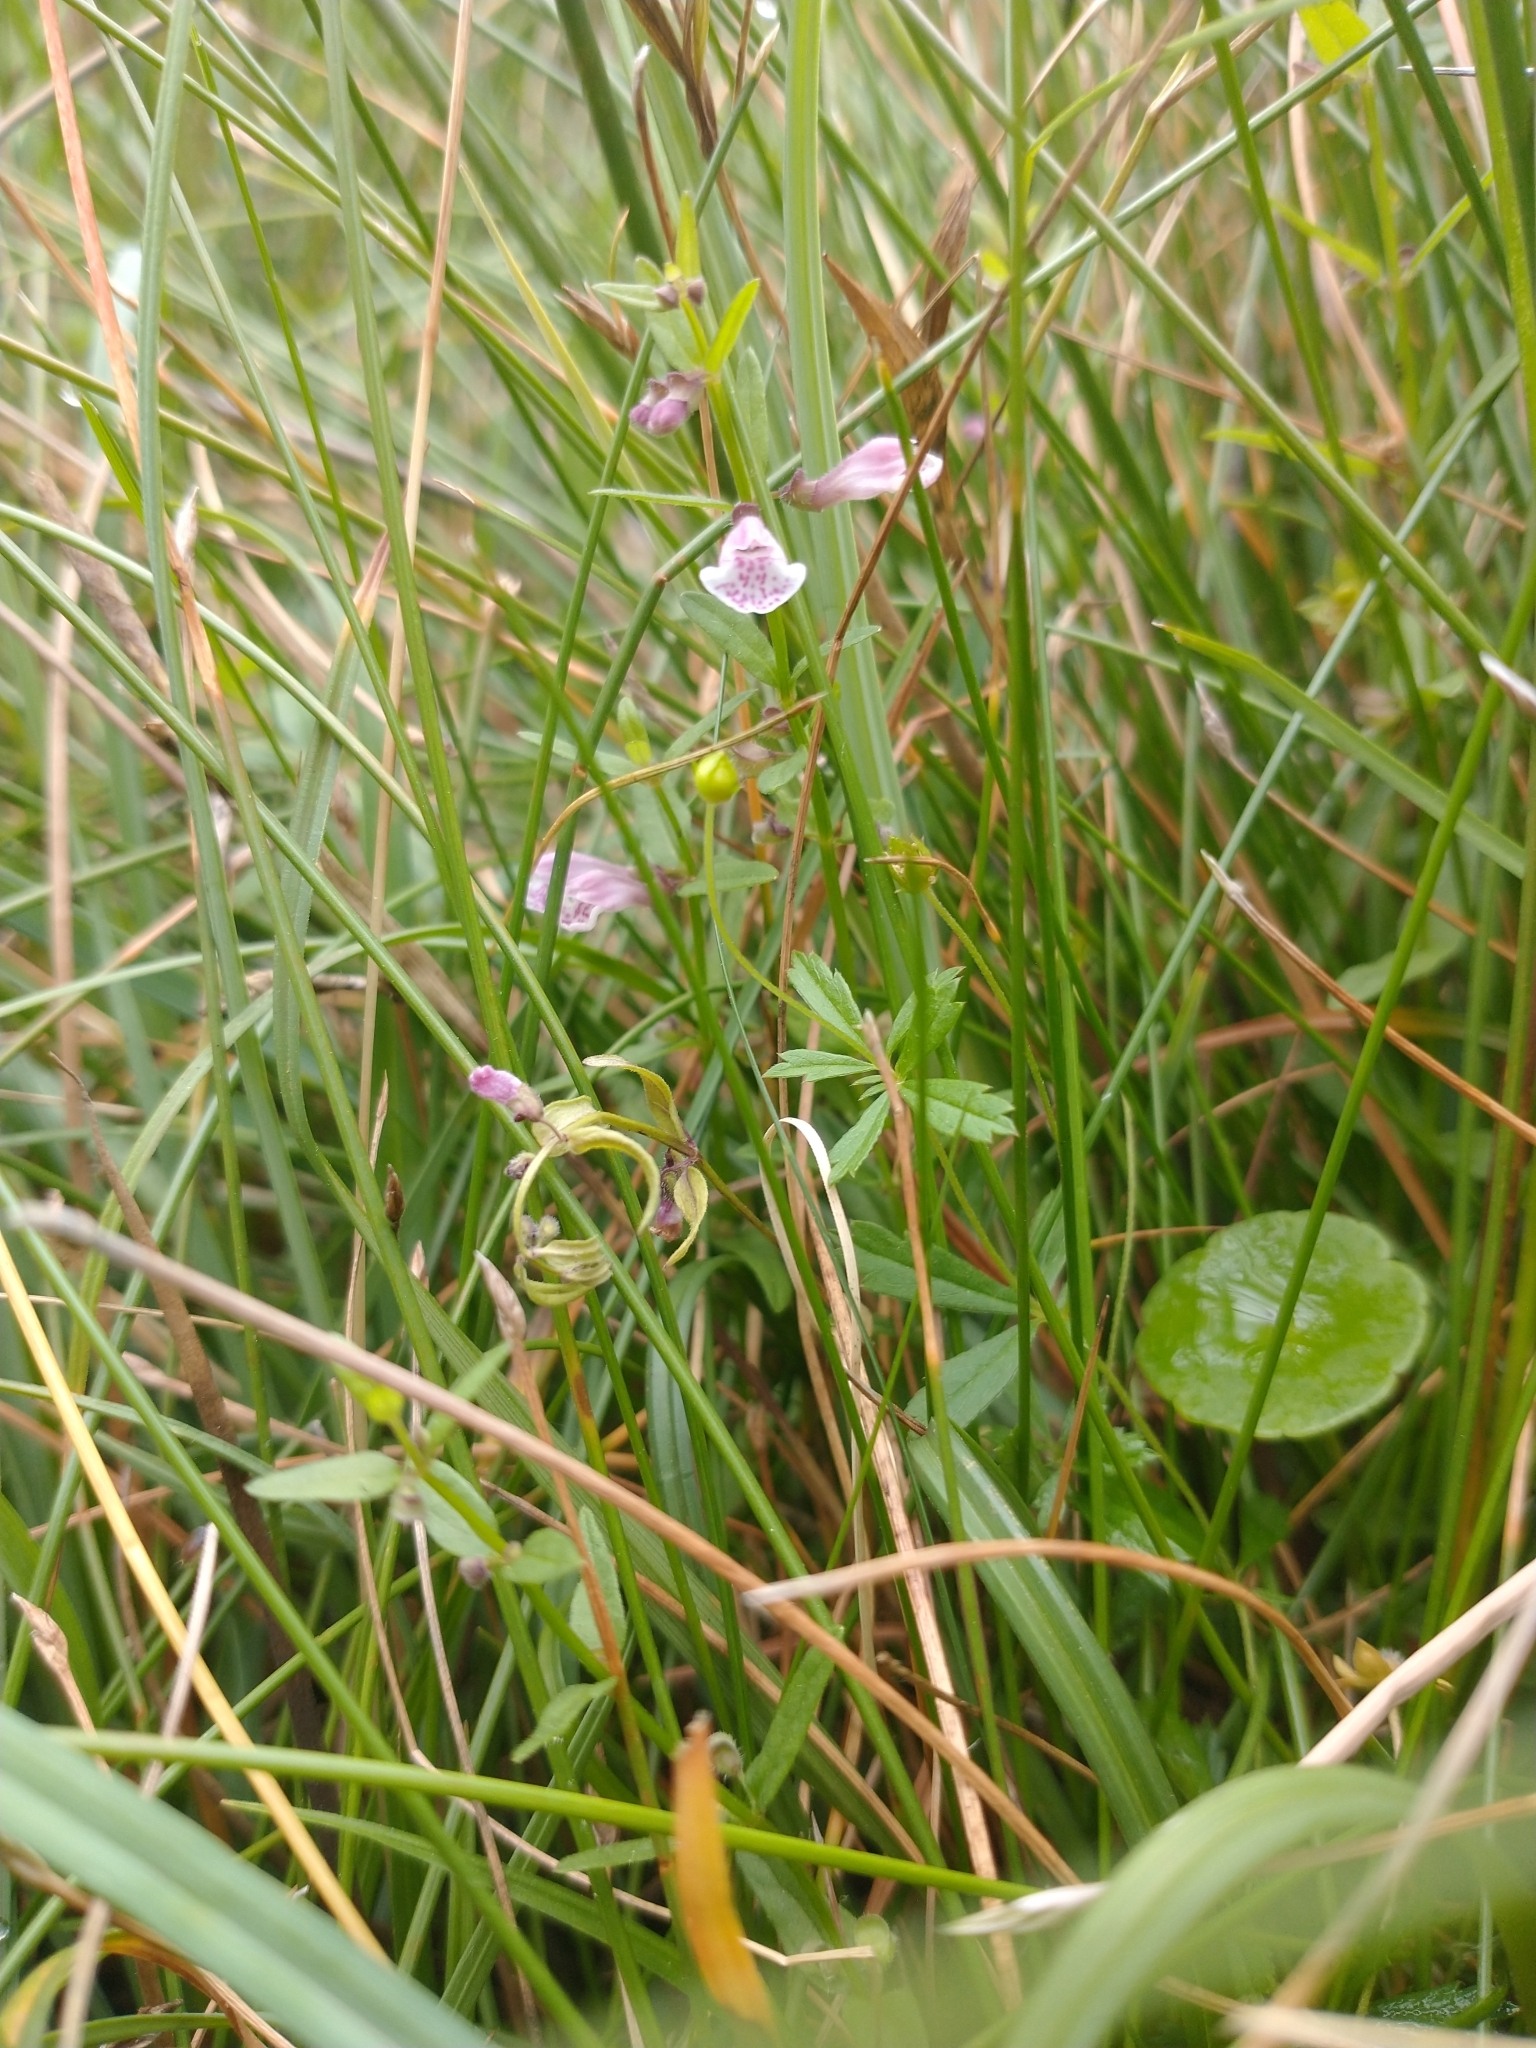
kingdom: Plantae
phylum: Tracheophyta
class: Magnoliopsida
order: Lamiales
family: Lamiaceae
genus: Scutellaria
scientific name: Scutellaria minor
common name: Lesser skullcap
